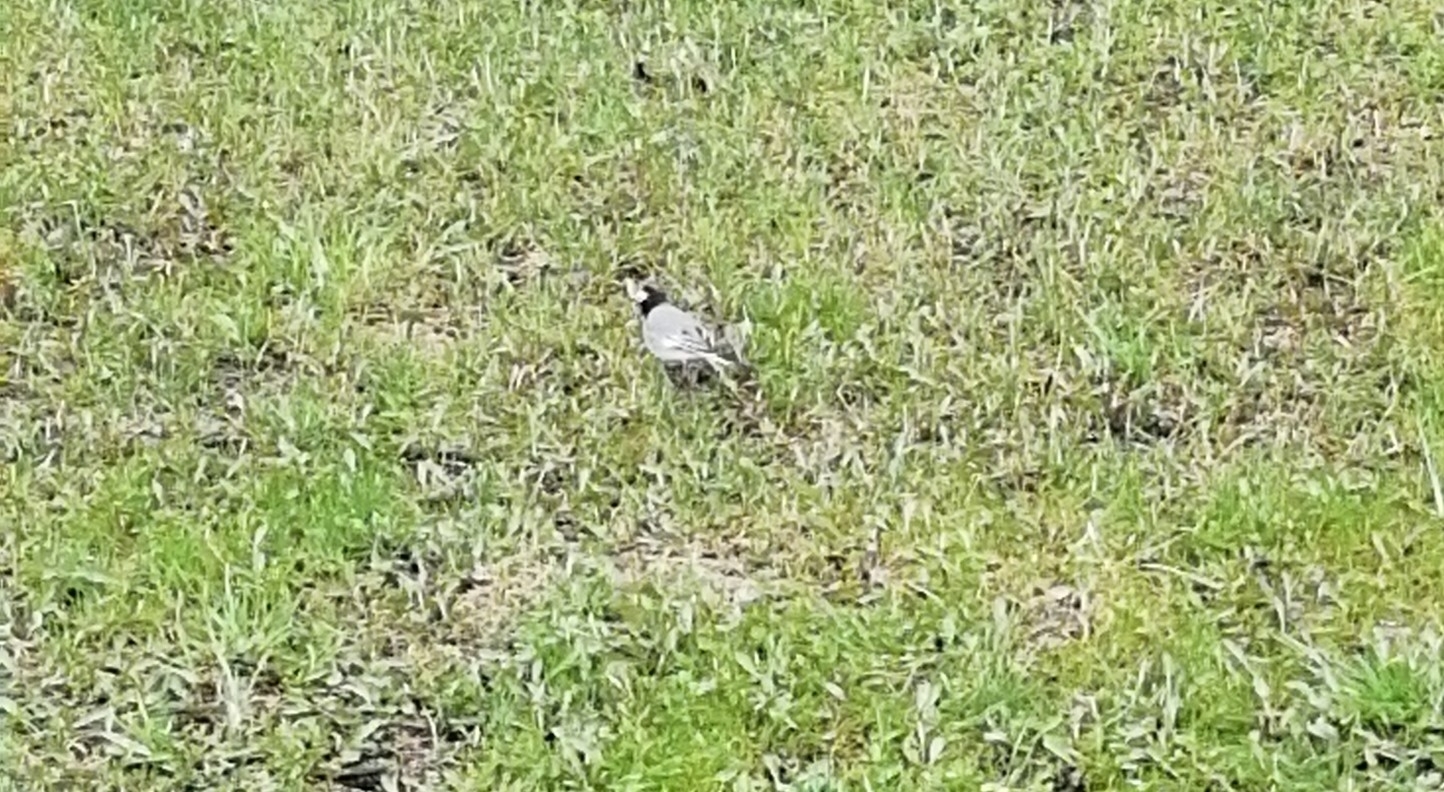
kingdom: Animalia
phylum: Chordata
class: Aves
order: Passeriformes
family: Motacillidae
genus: Motacilla
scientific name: Motacilla alba
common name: White wagtail
